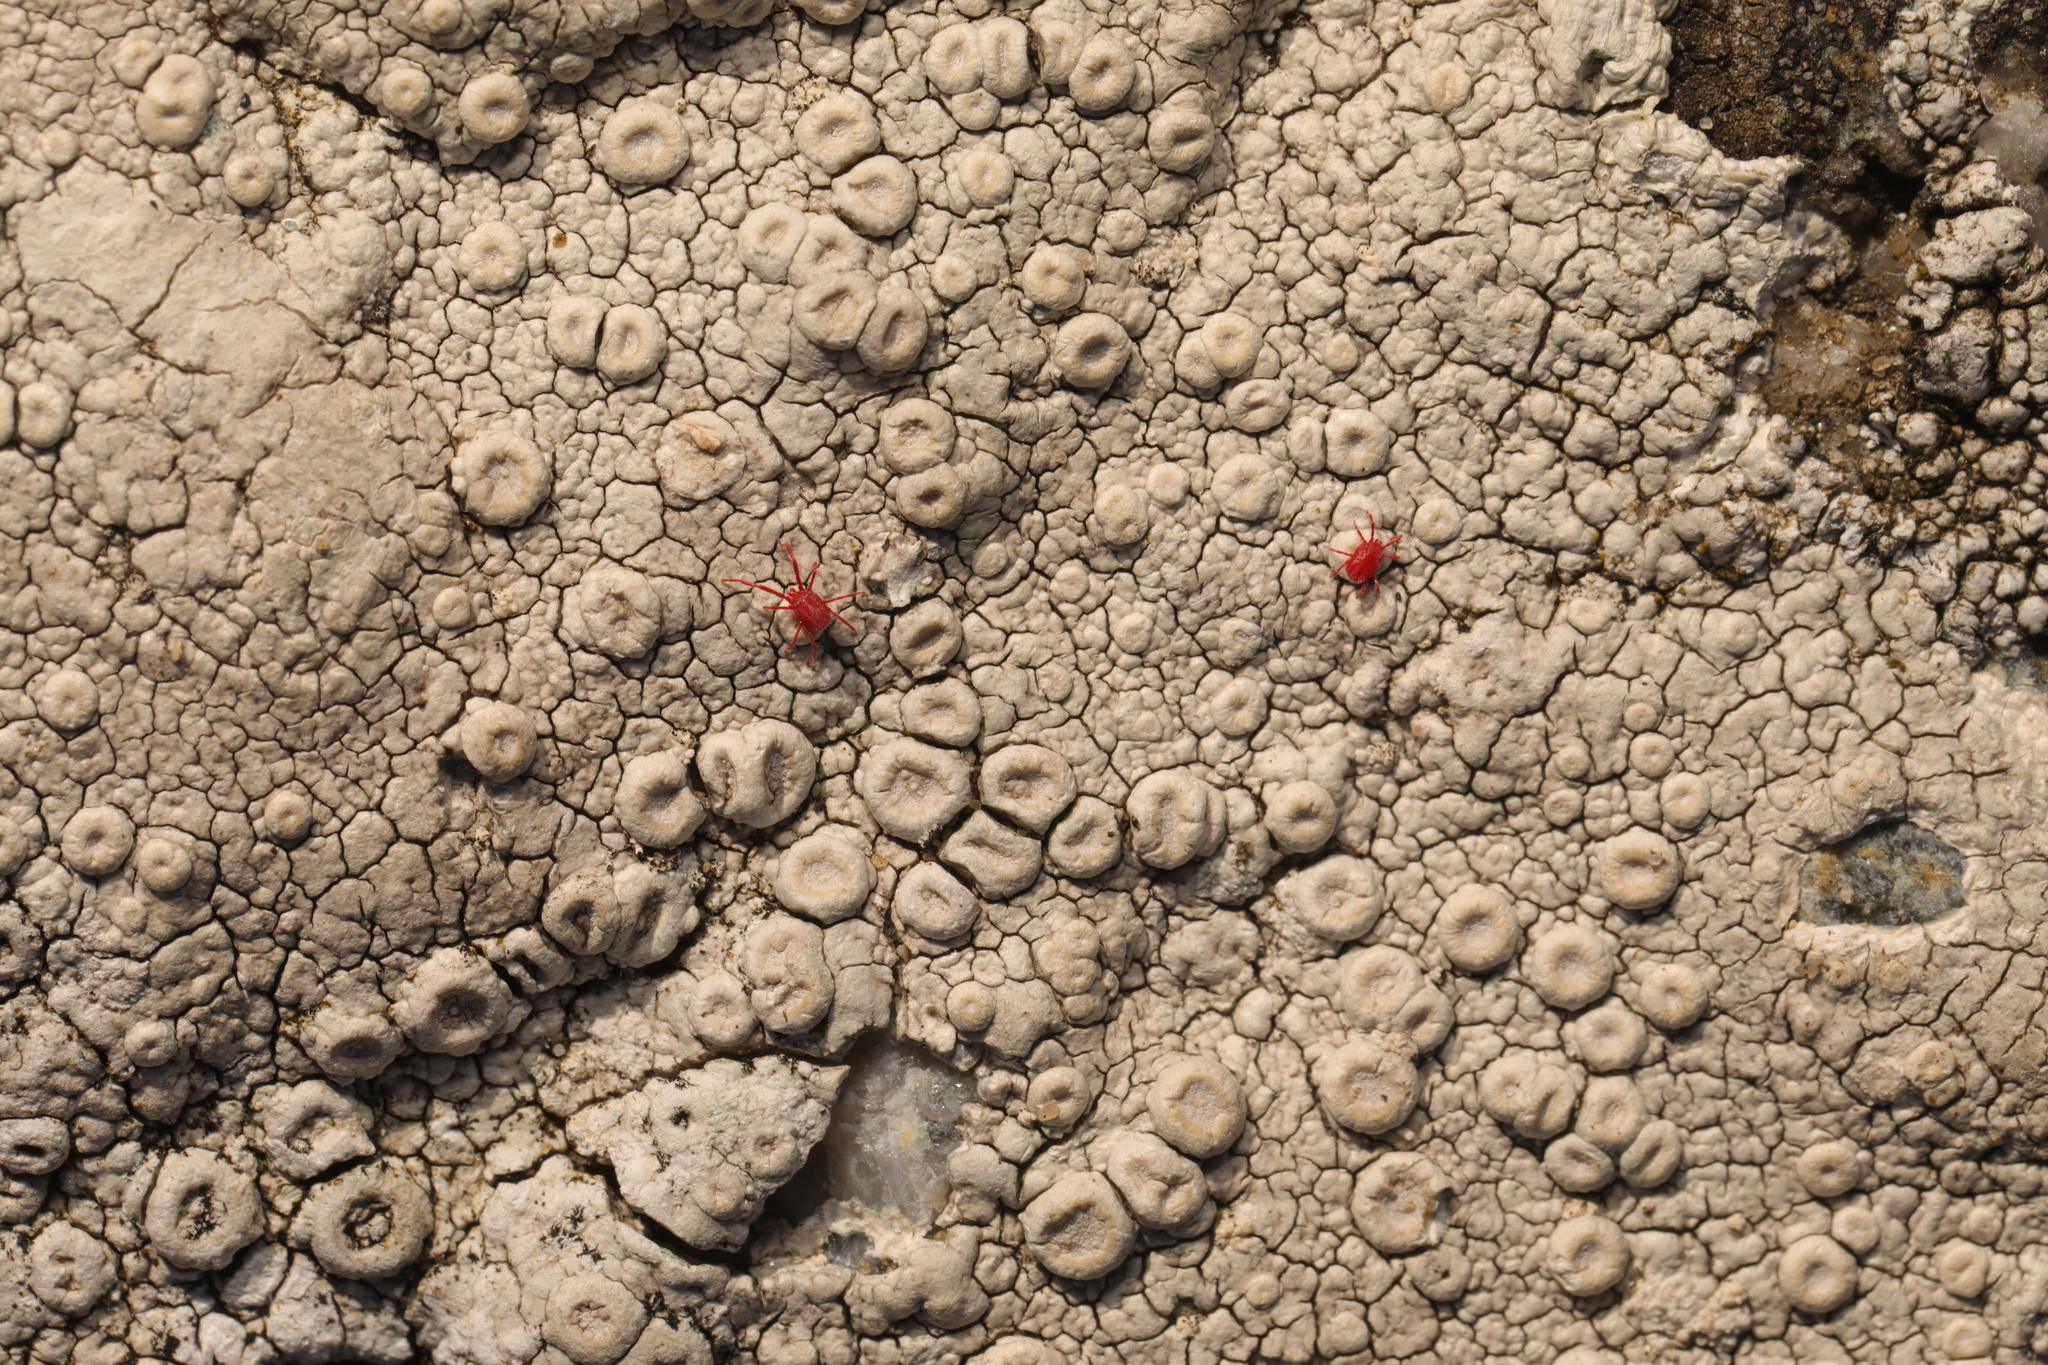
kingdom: Fungi
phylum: Ascomycota
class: Lecanoromycetes
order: Pertusariales
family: Ochrolechiaceae
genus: Ochrolechia
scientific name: Ochrolechia parella
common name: Crab's eye lichen
